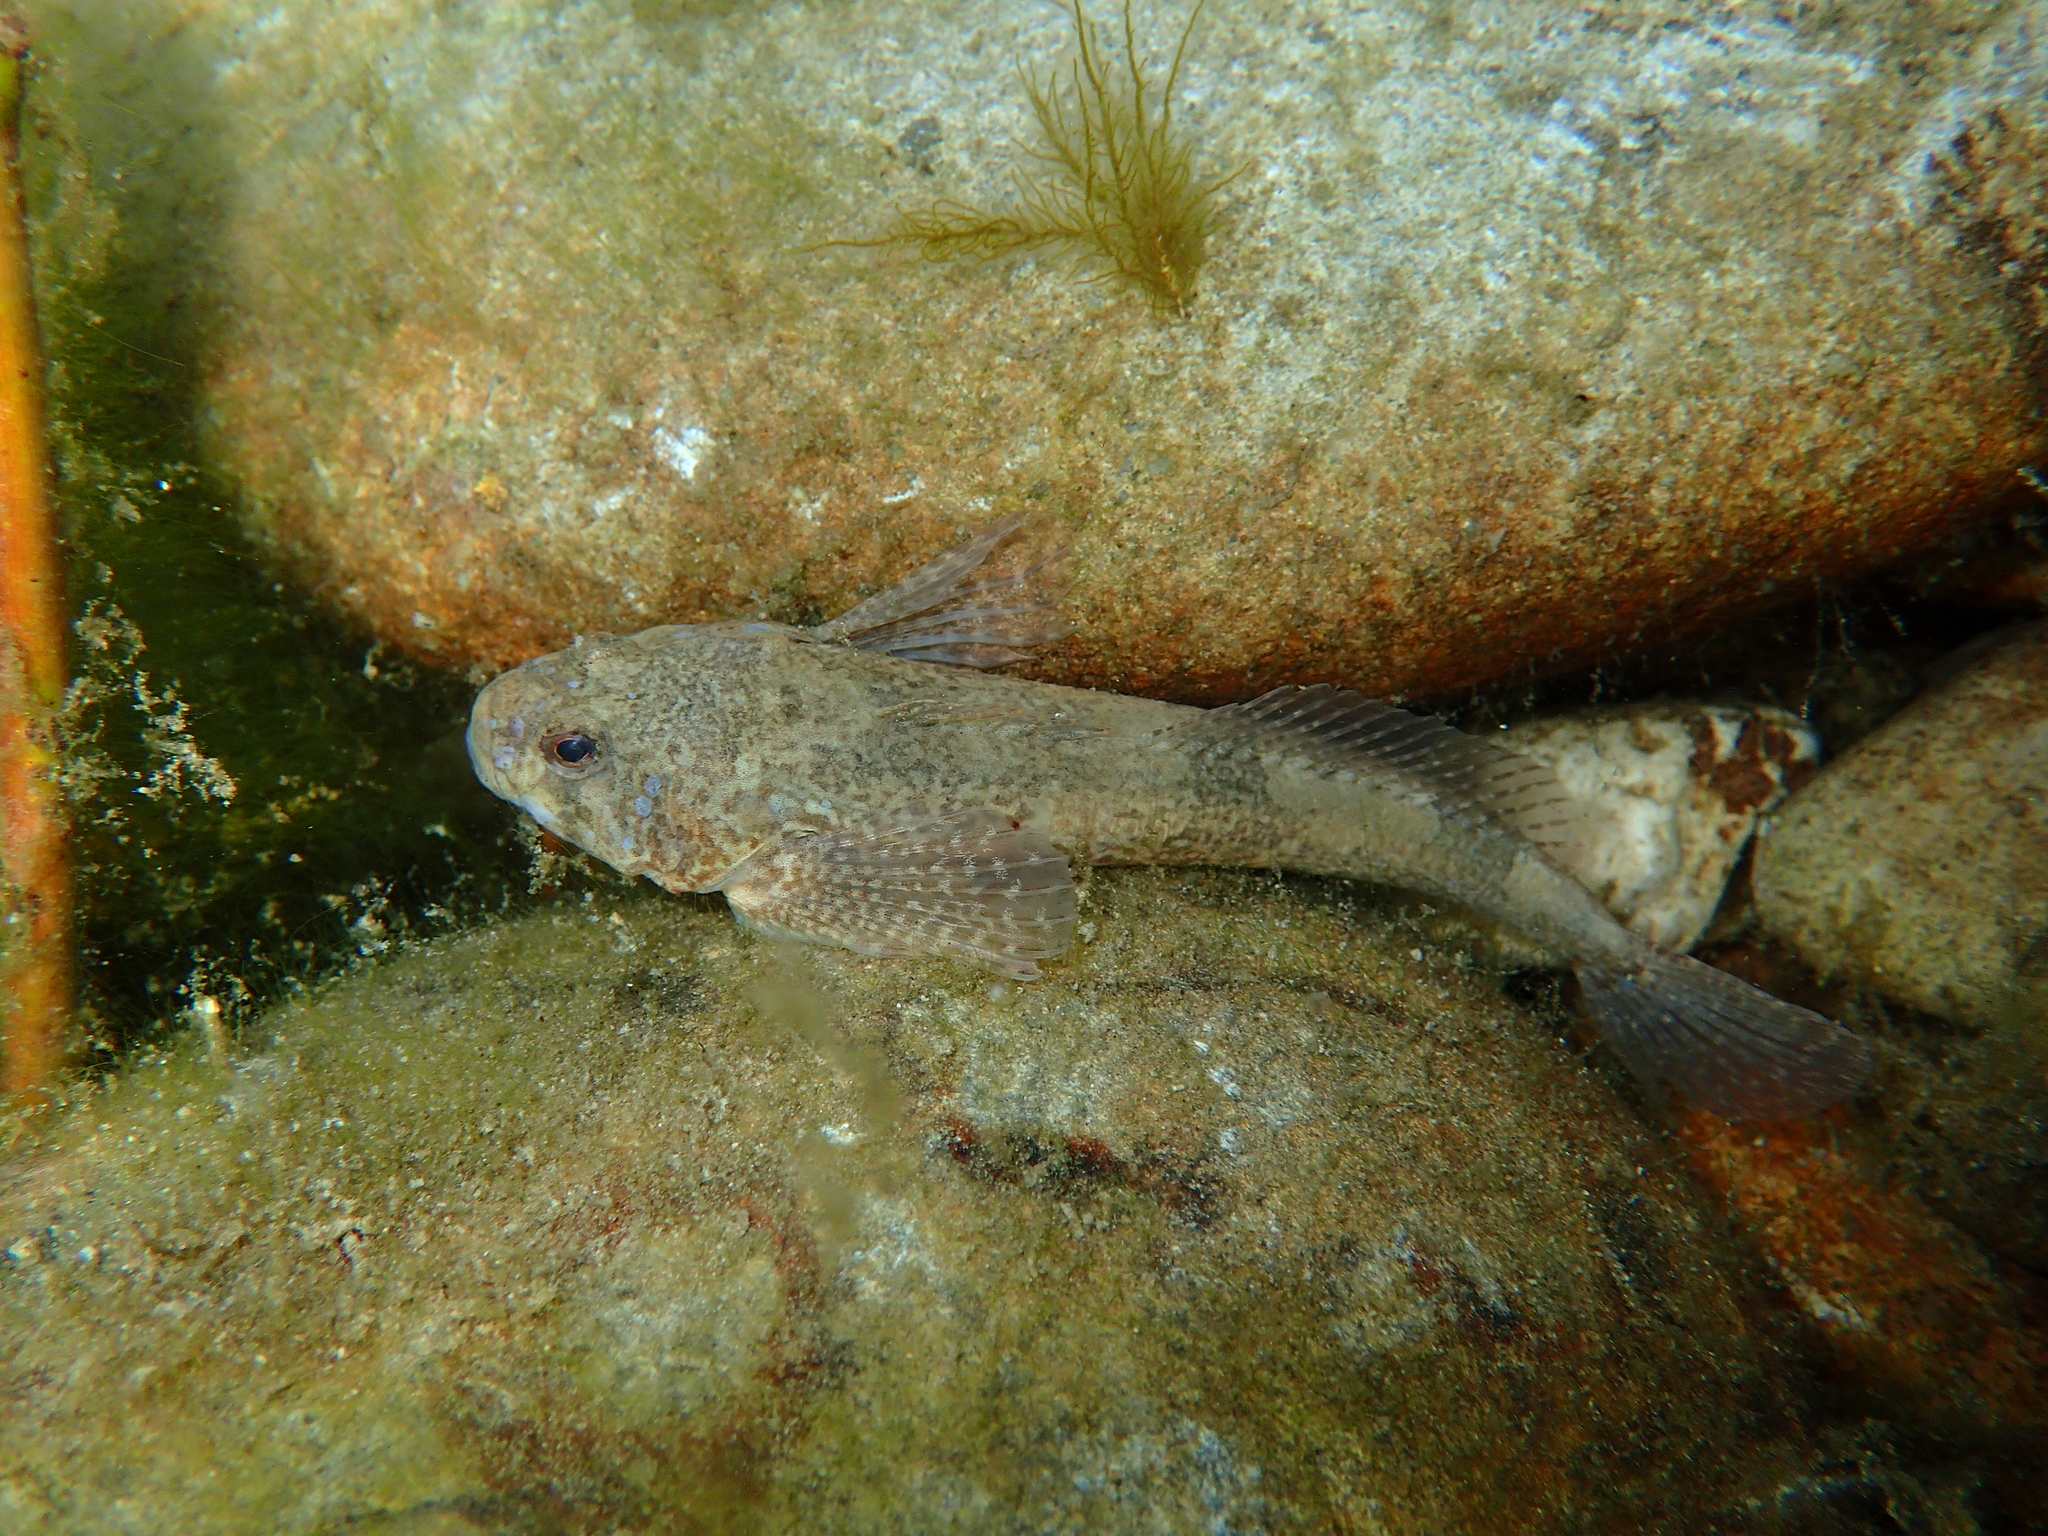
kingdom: Animalia
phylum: Chordata
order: Scorpaeniformes
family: Cottidae
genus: Cottus
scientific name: Cottus gobio
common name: Bullhead
